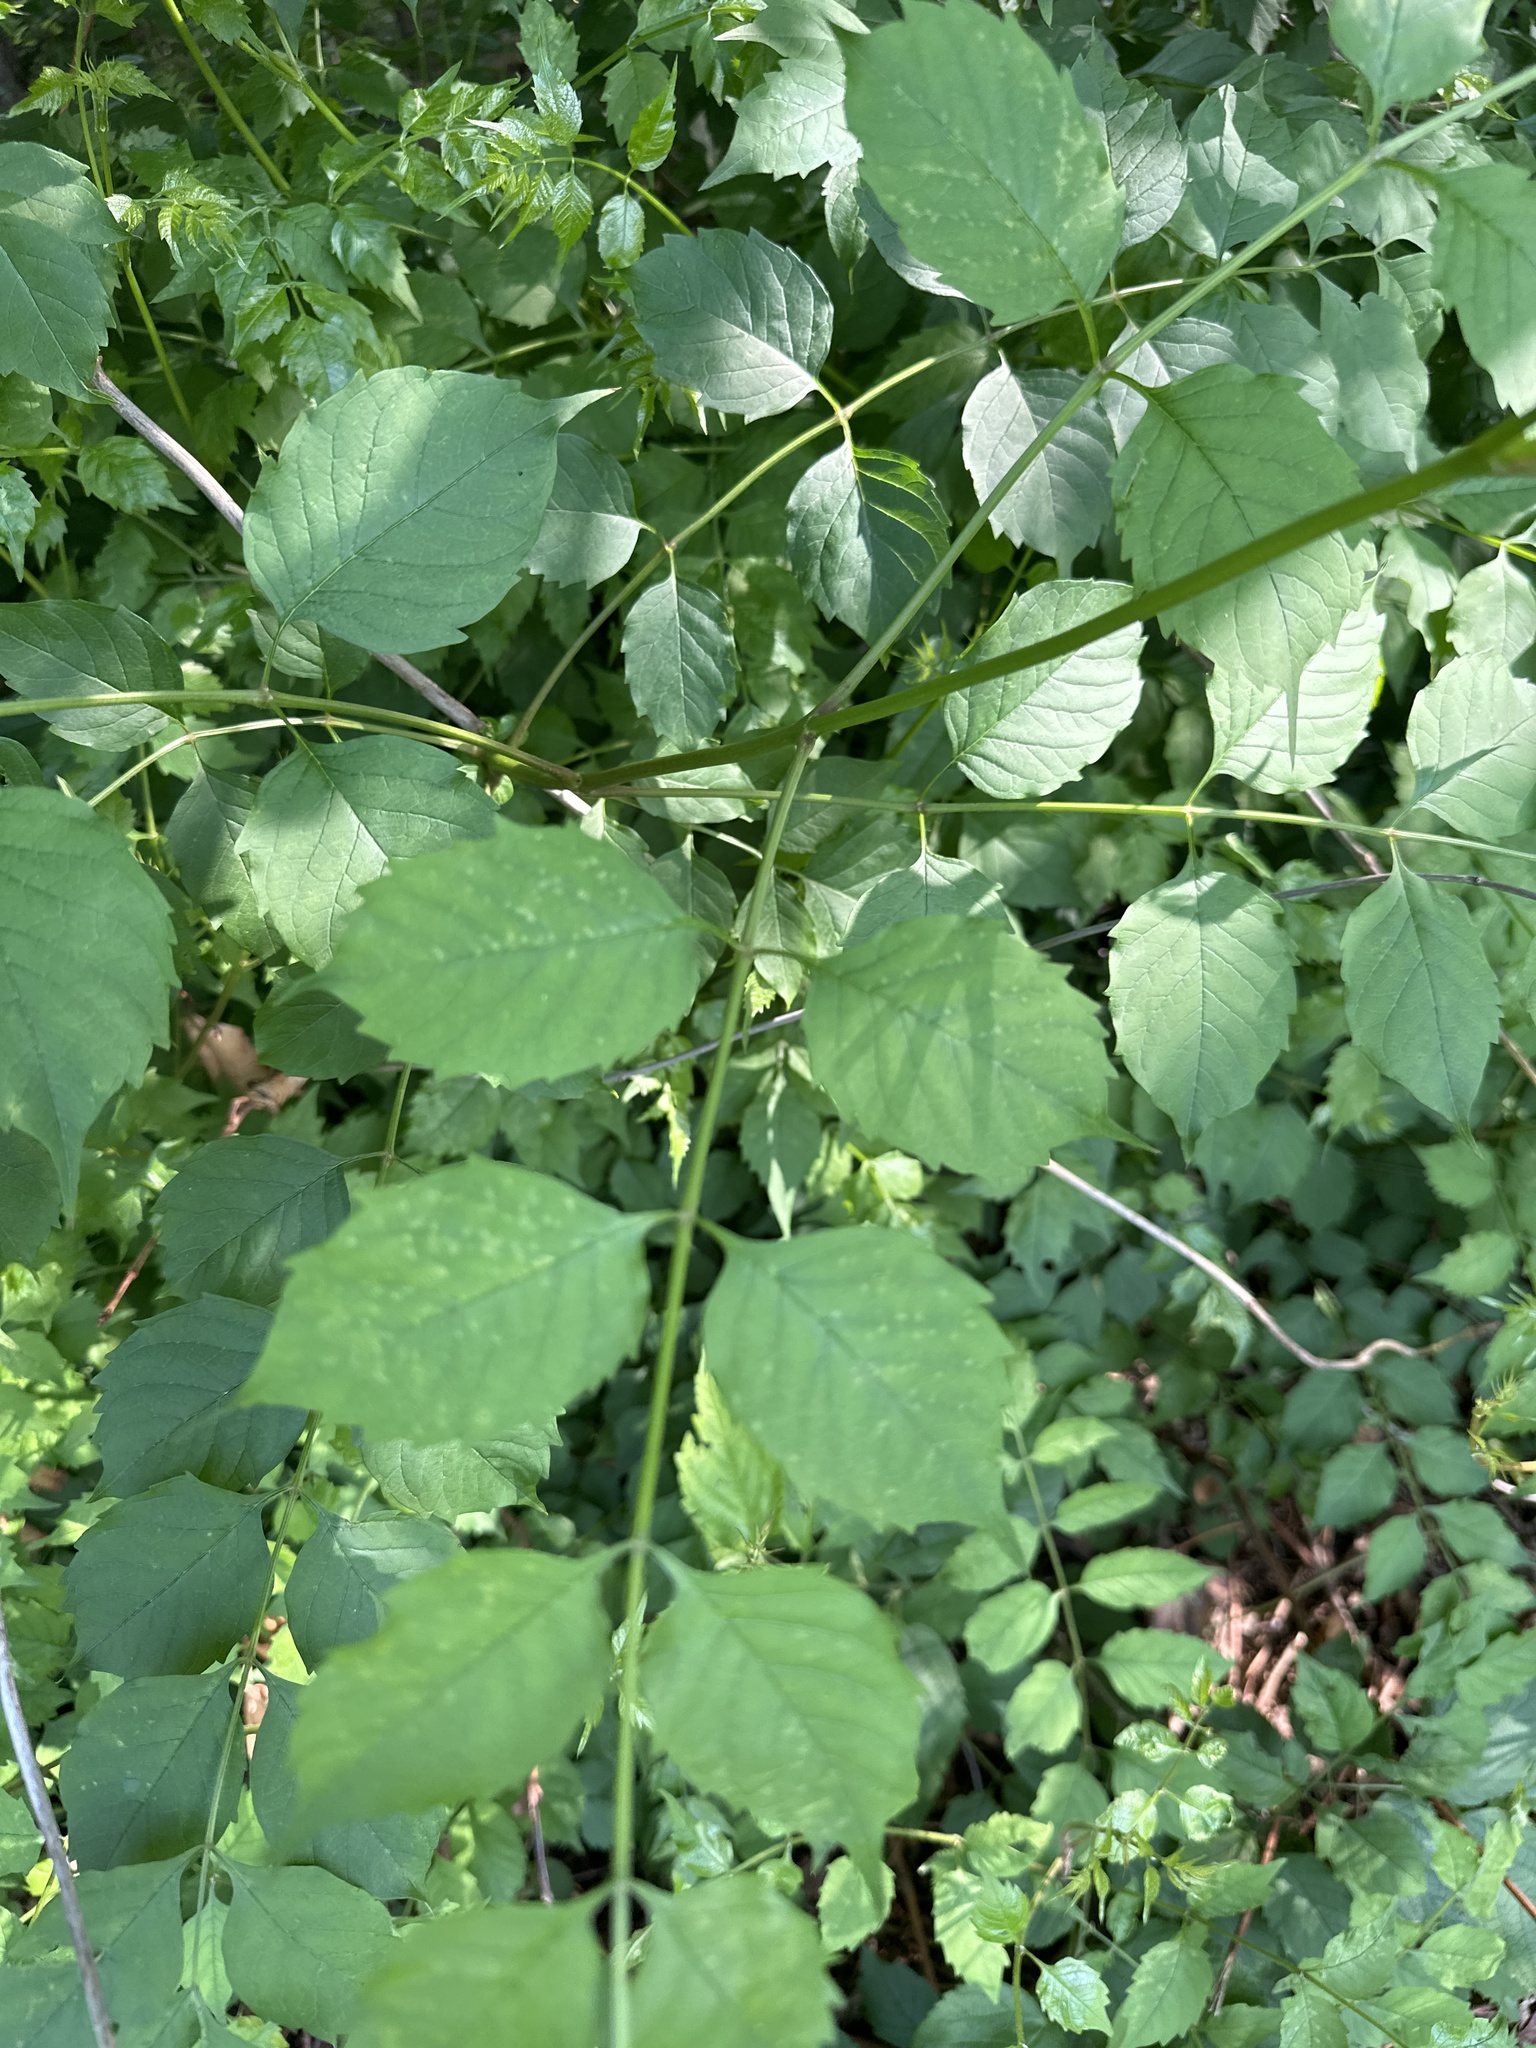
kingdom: Plantae
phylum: Tracheophyta
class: Magnoliopsida
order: Lamiales
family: Bignoniaceae
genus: Campsis
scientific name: Campsis radicans
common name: Trumpet-creeper
